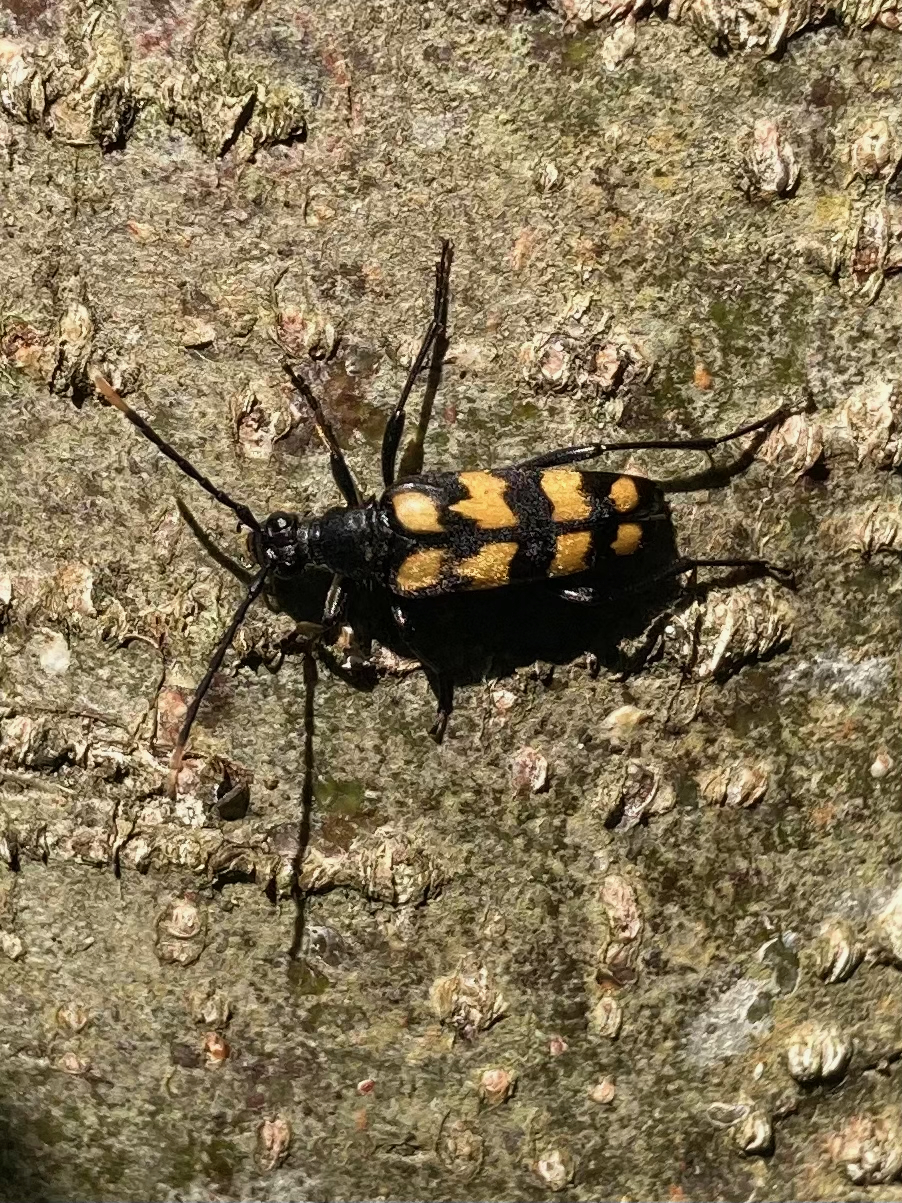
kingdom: Animalia
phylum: Arthropoda
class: Insecta
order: Coleoptera
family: Cerambycidae
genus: Leptura
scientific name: Leptura quadrifasciata
